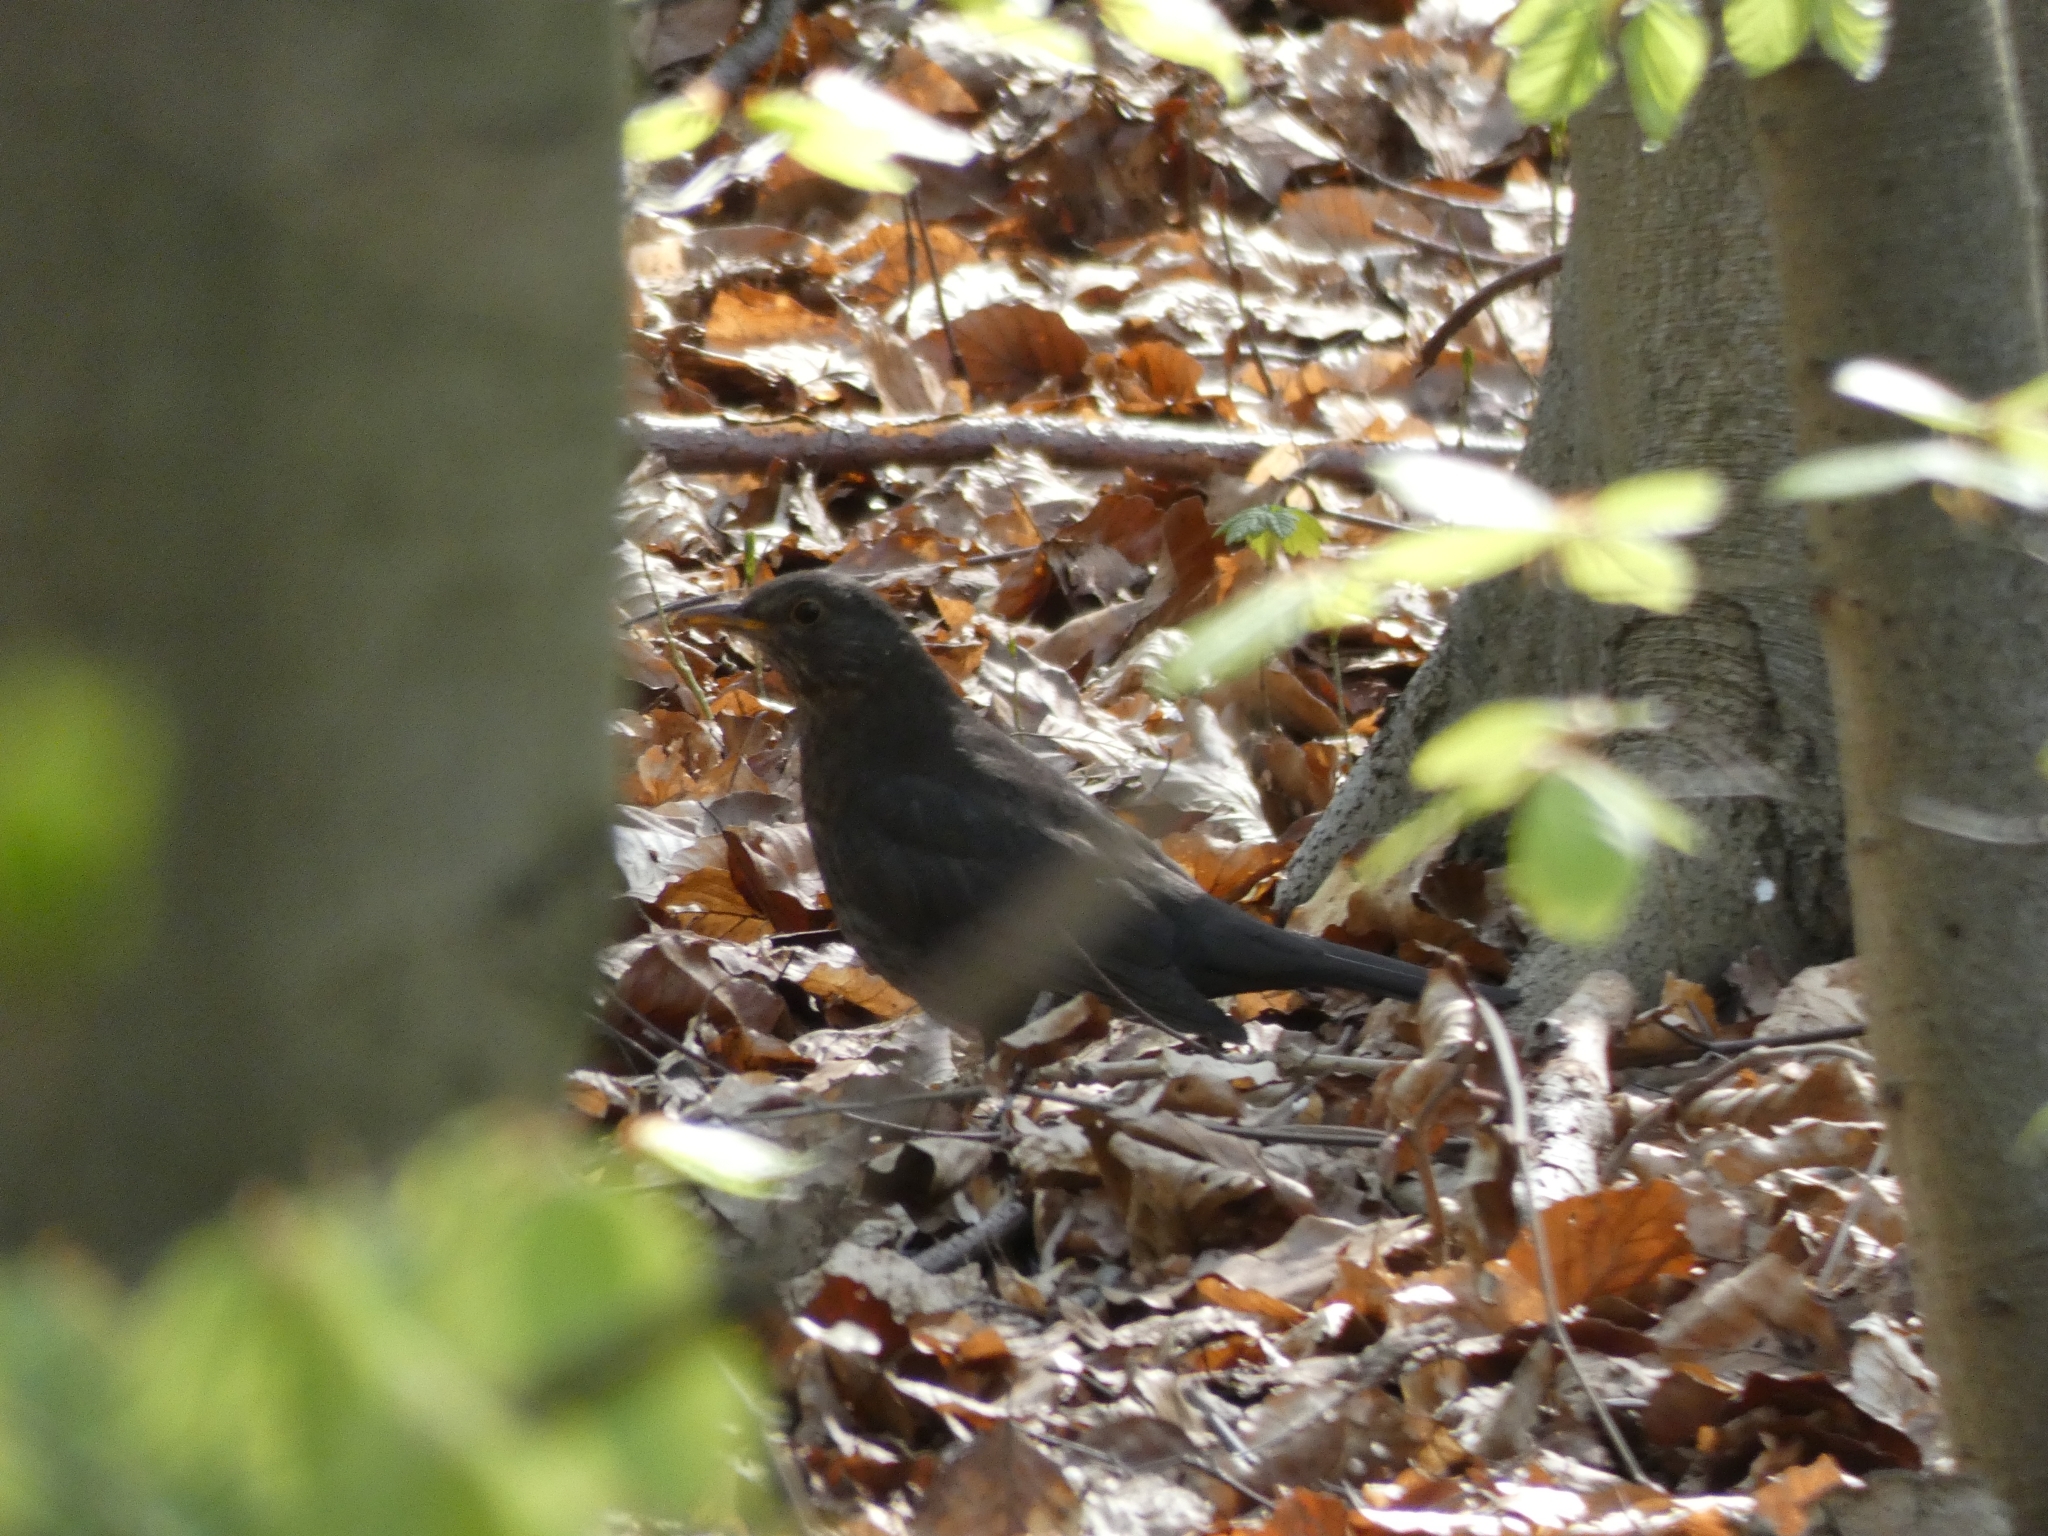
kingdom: Animalia
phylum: Chordata
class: Aves
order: Passeriformes
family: Turdidae
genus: Turdus
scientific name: Turdus merula
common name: Common blackbird
